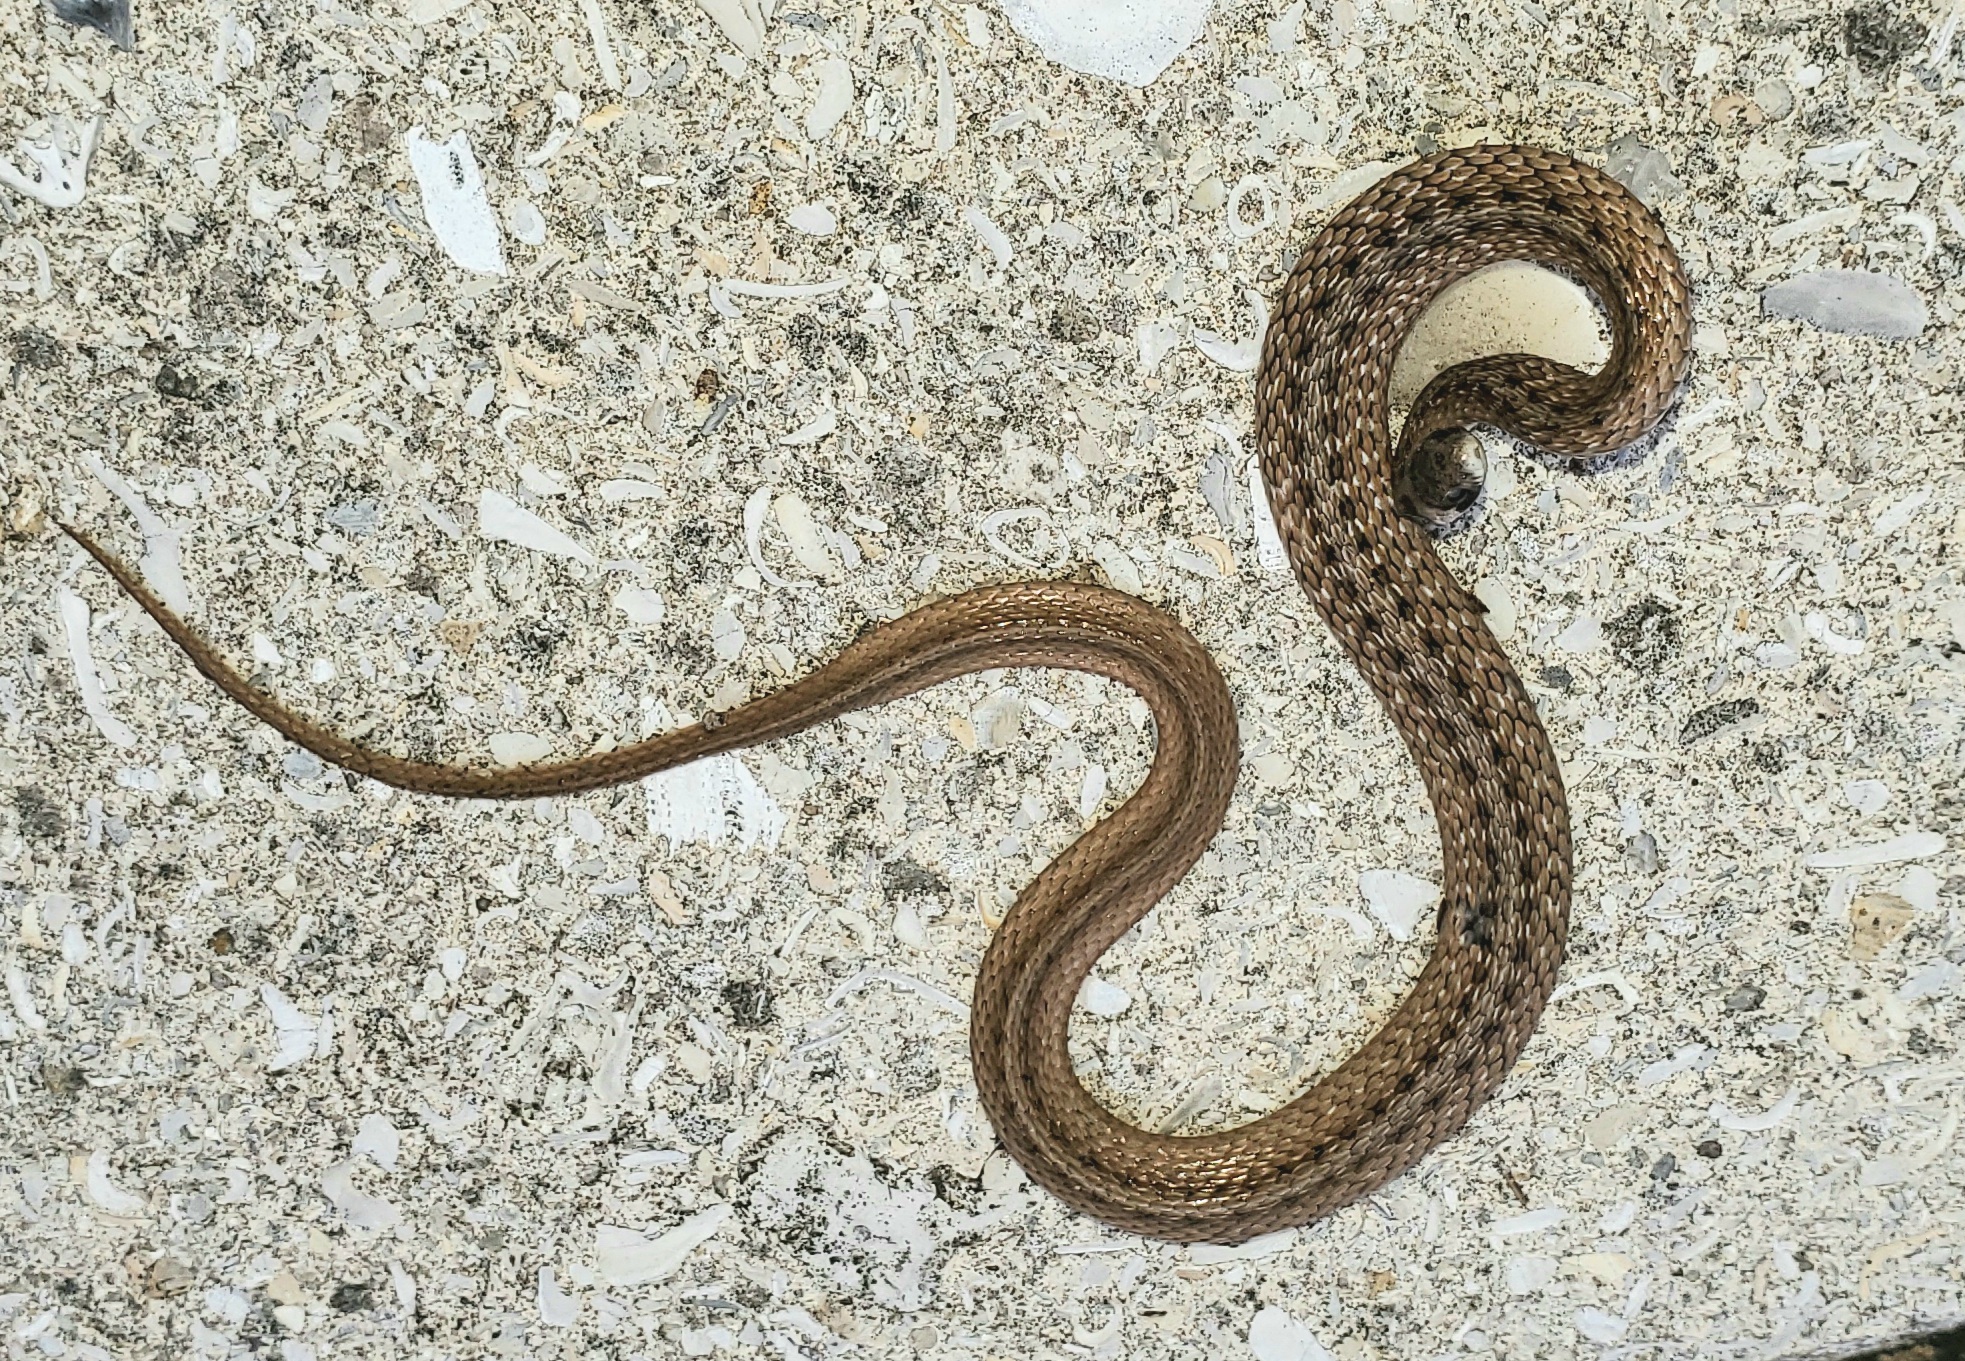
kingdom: Animalia
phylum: Chordata
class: Squamata
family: Colubridae
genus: Storeria
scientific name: Storeria victa
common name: Florida brown snake
